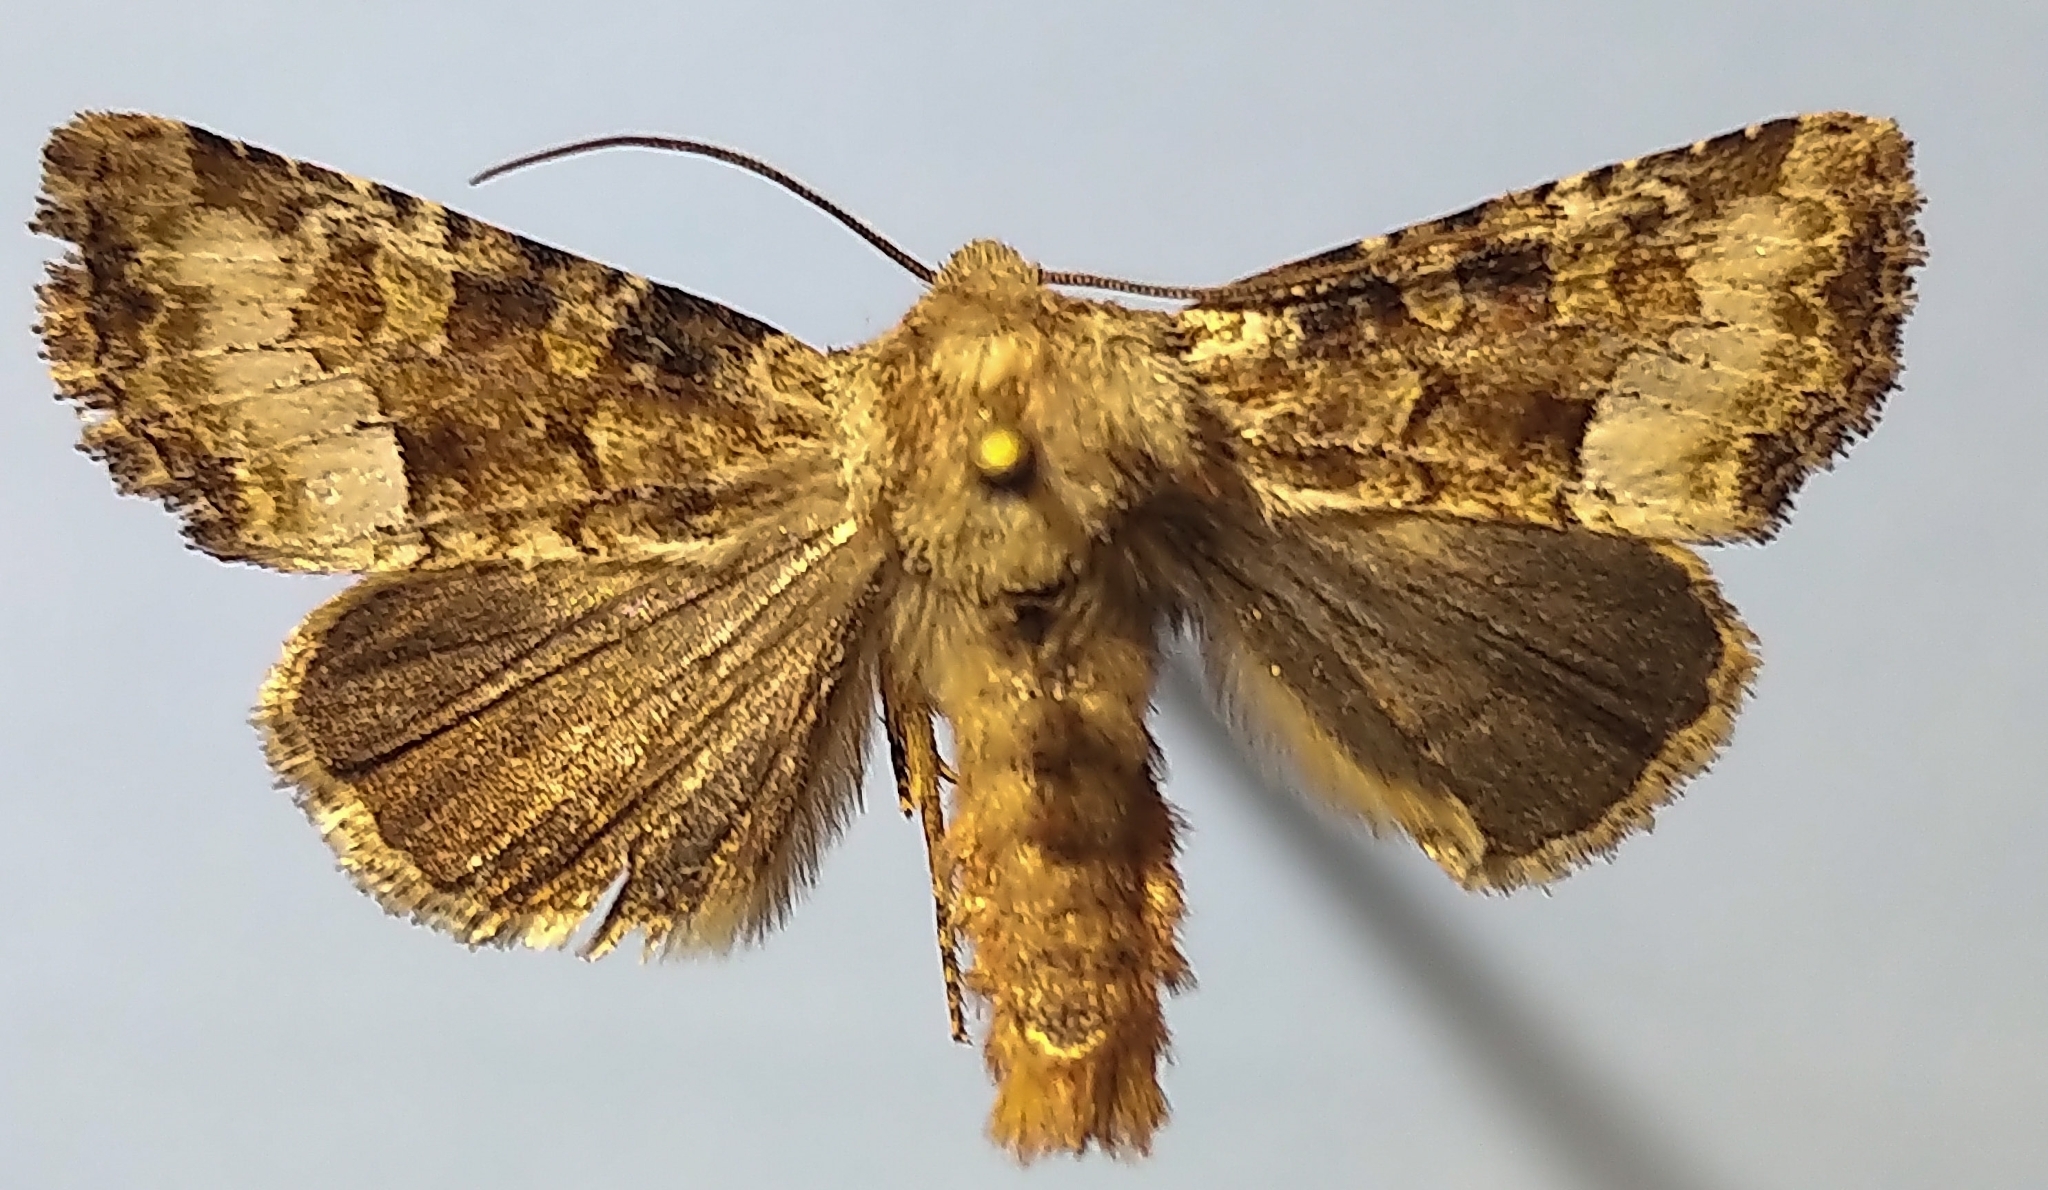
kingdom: Animalia
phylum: Arthropoda
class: Insecta
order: Lepidoptera
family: Noctuidae
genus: Oligia
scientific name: Oligia egens
